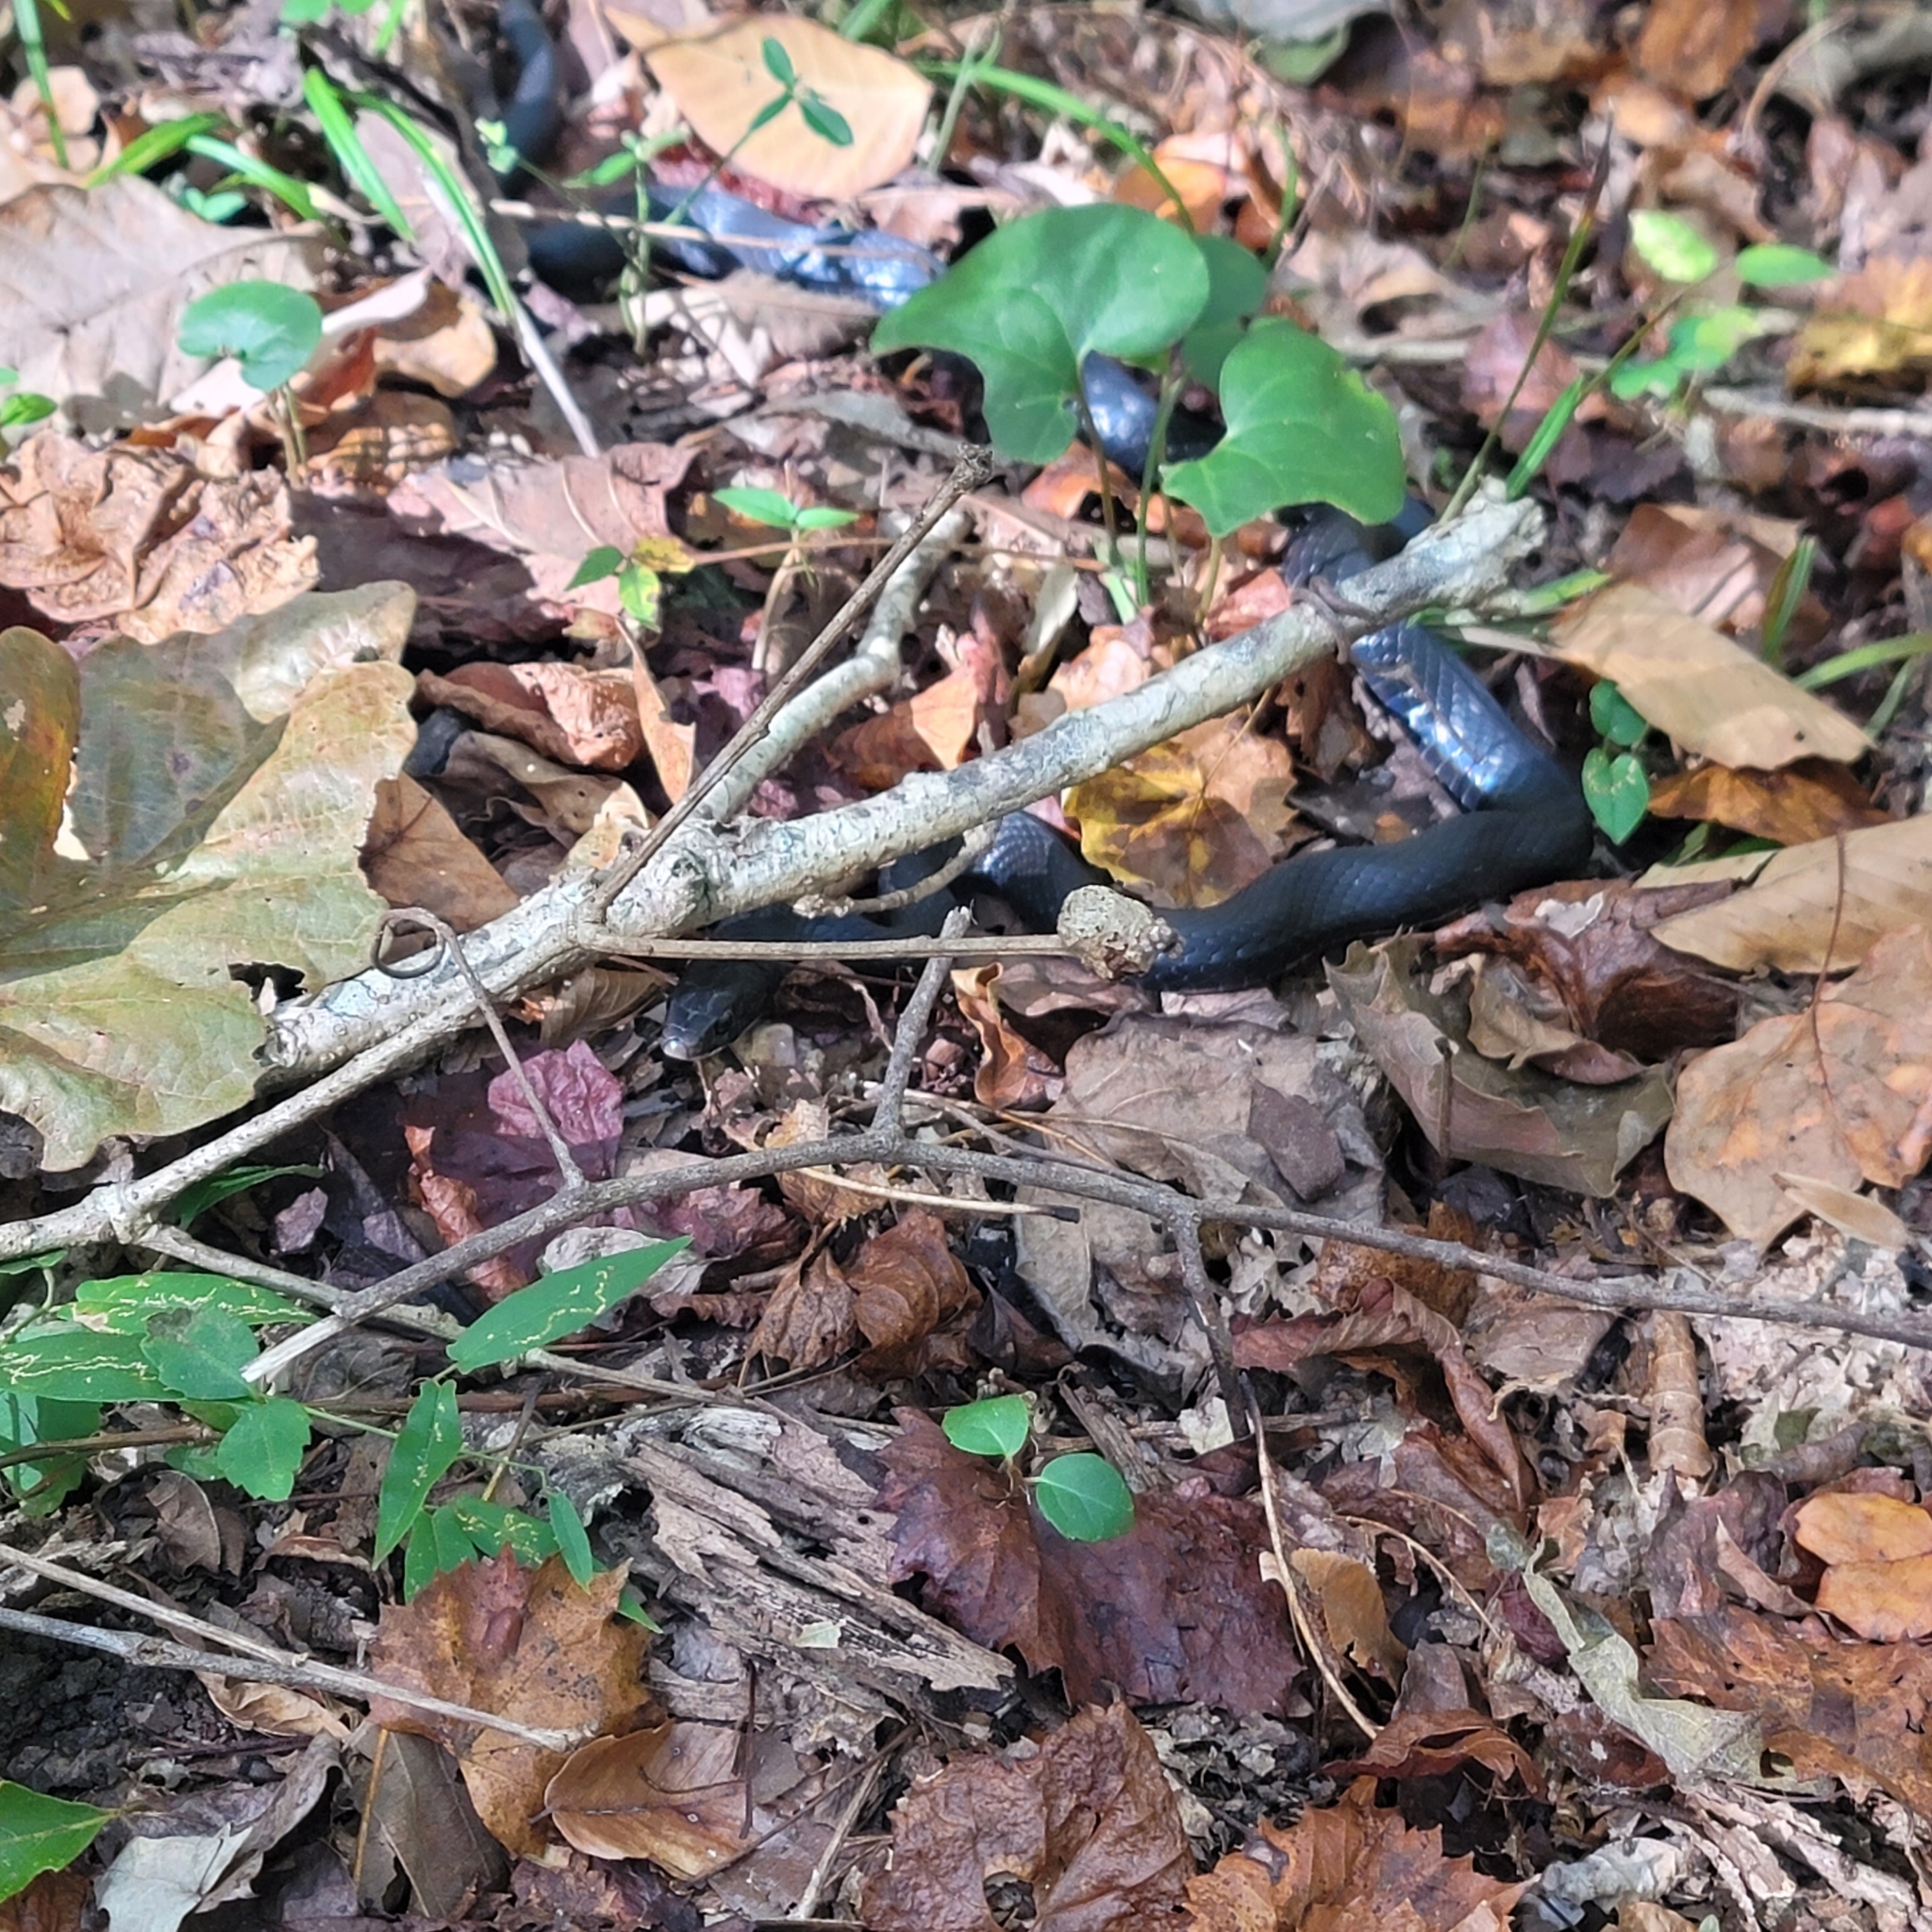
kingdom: Animalia
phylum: Chordata
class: Squamata
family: Colubridae
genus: Coluber
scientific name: Coluber constrictor
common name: Eastern racer
